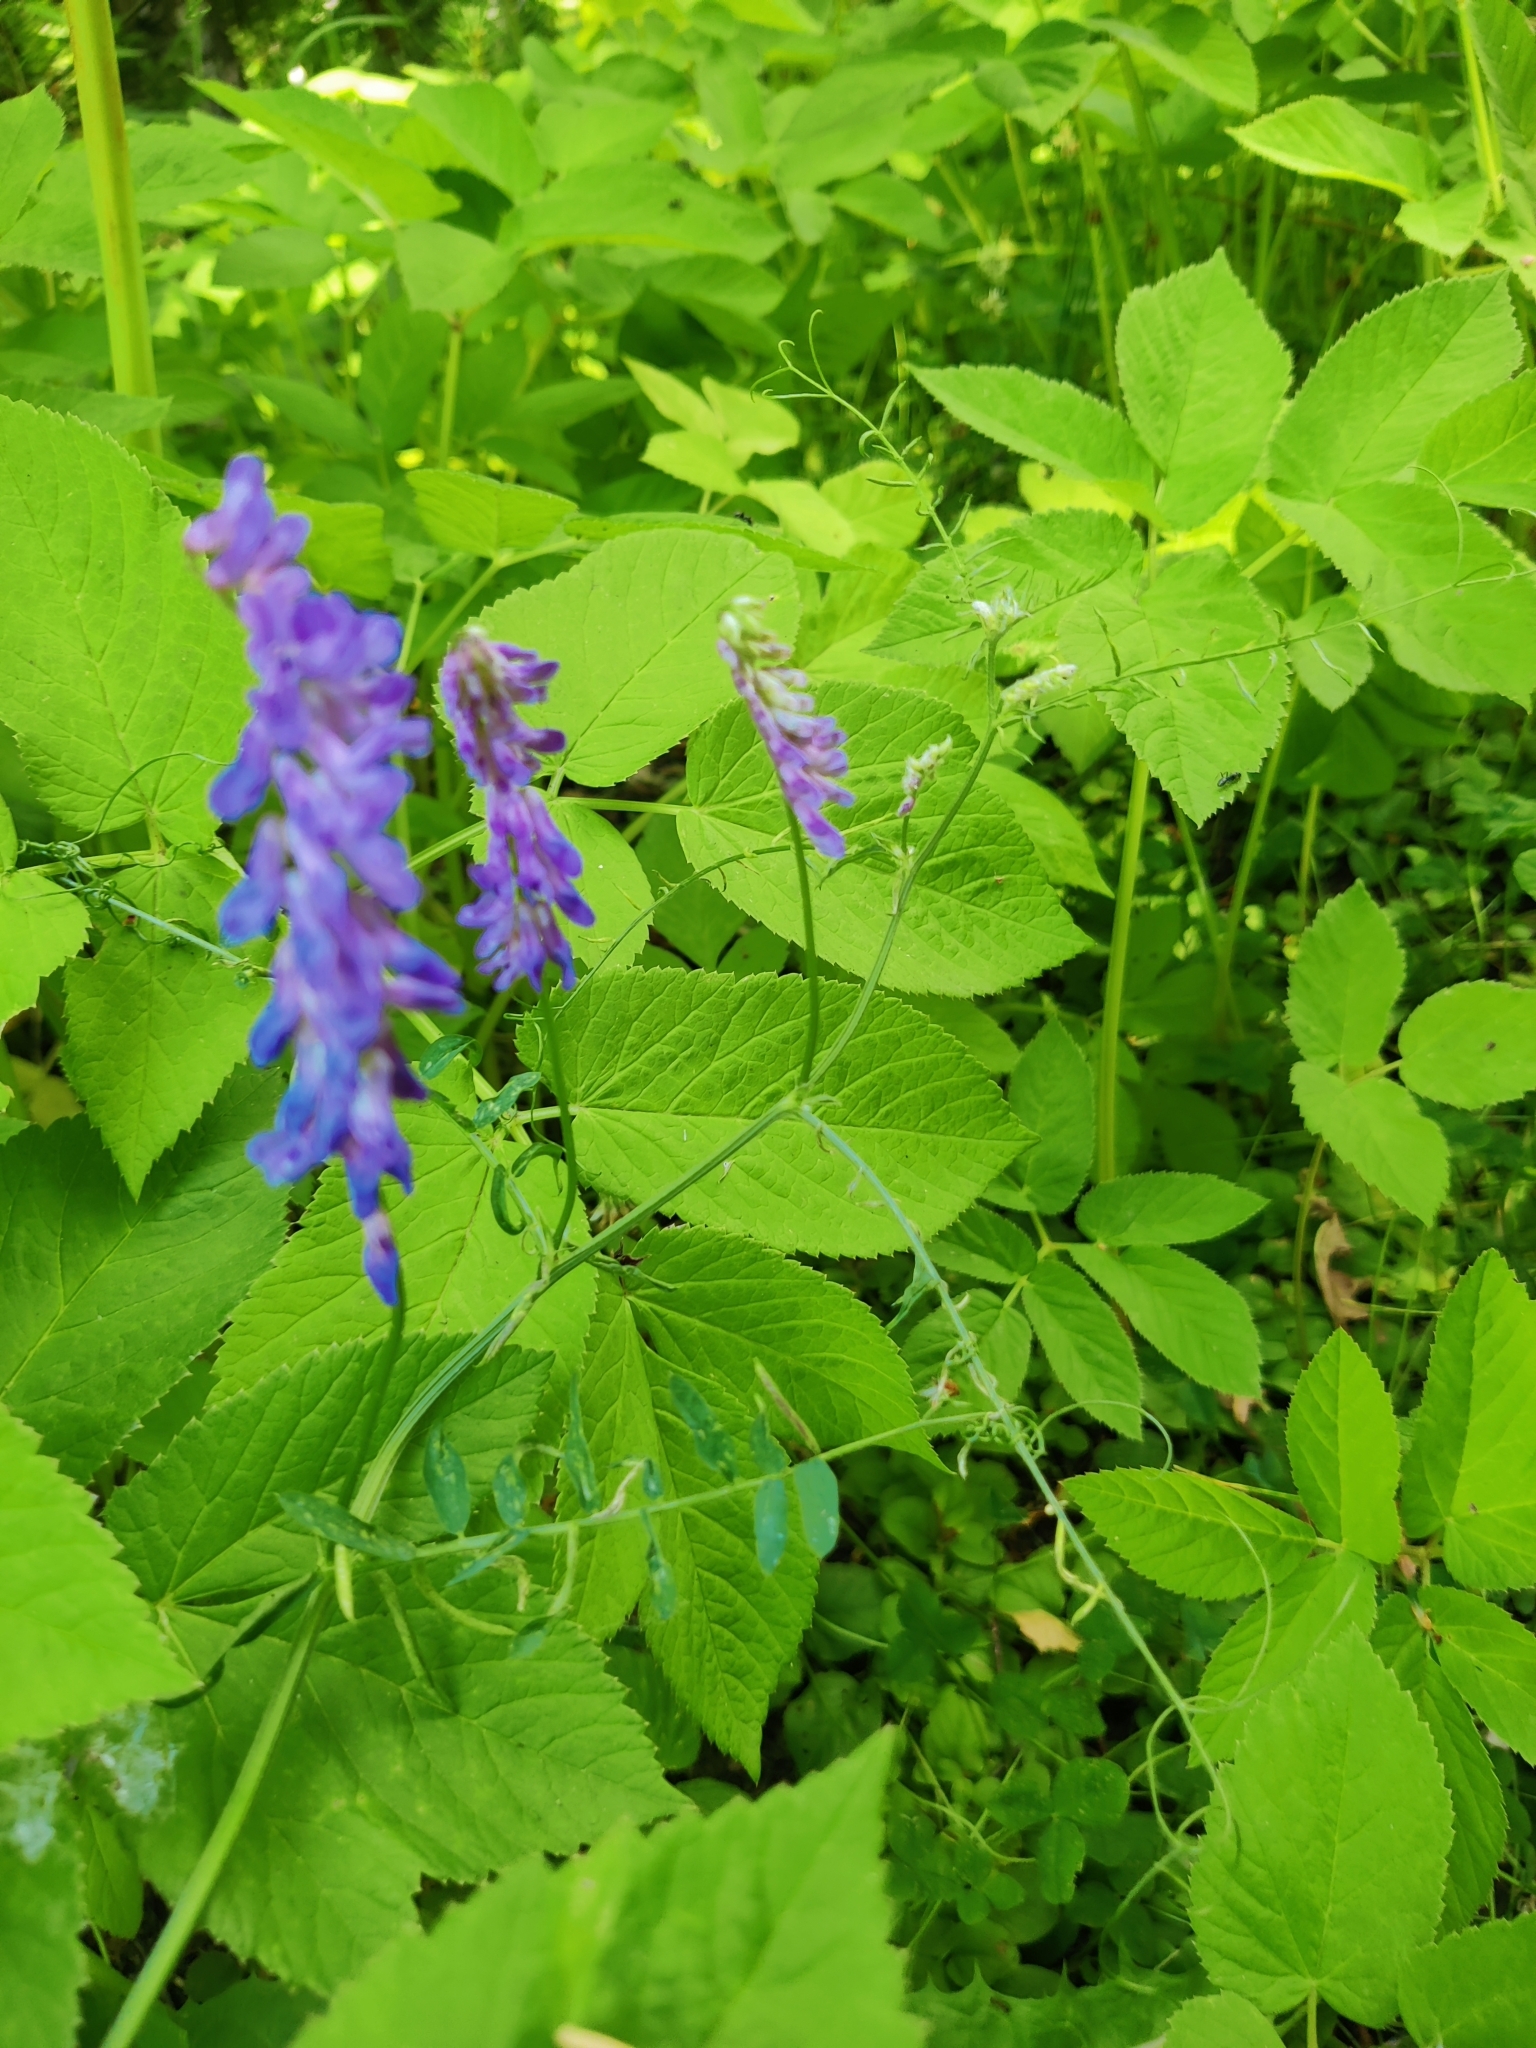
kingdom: Plantae
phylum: Tracheophyta
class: Magnoliopsida
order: Fabales
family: Fabaceae
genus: Vicia
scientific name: Vicia cracca
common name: Bird vetch
